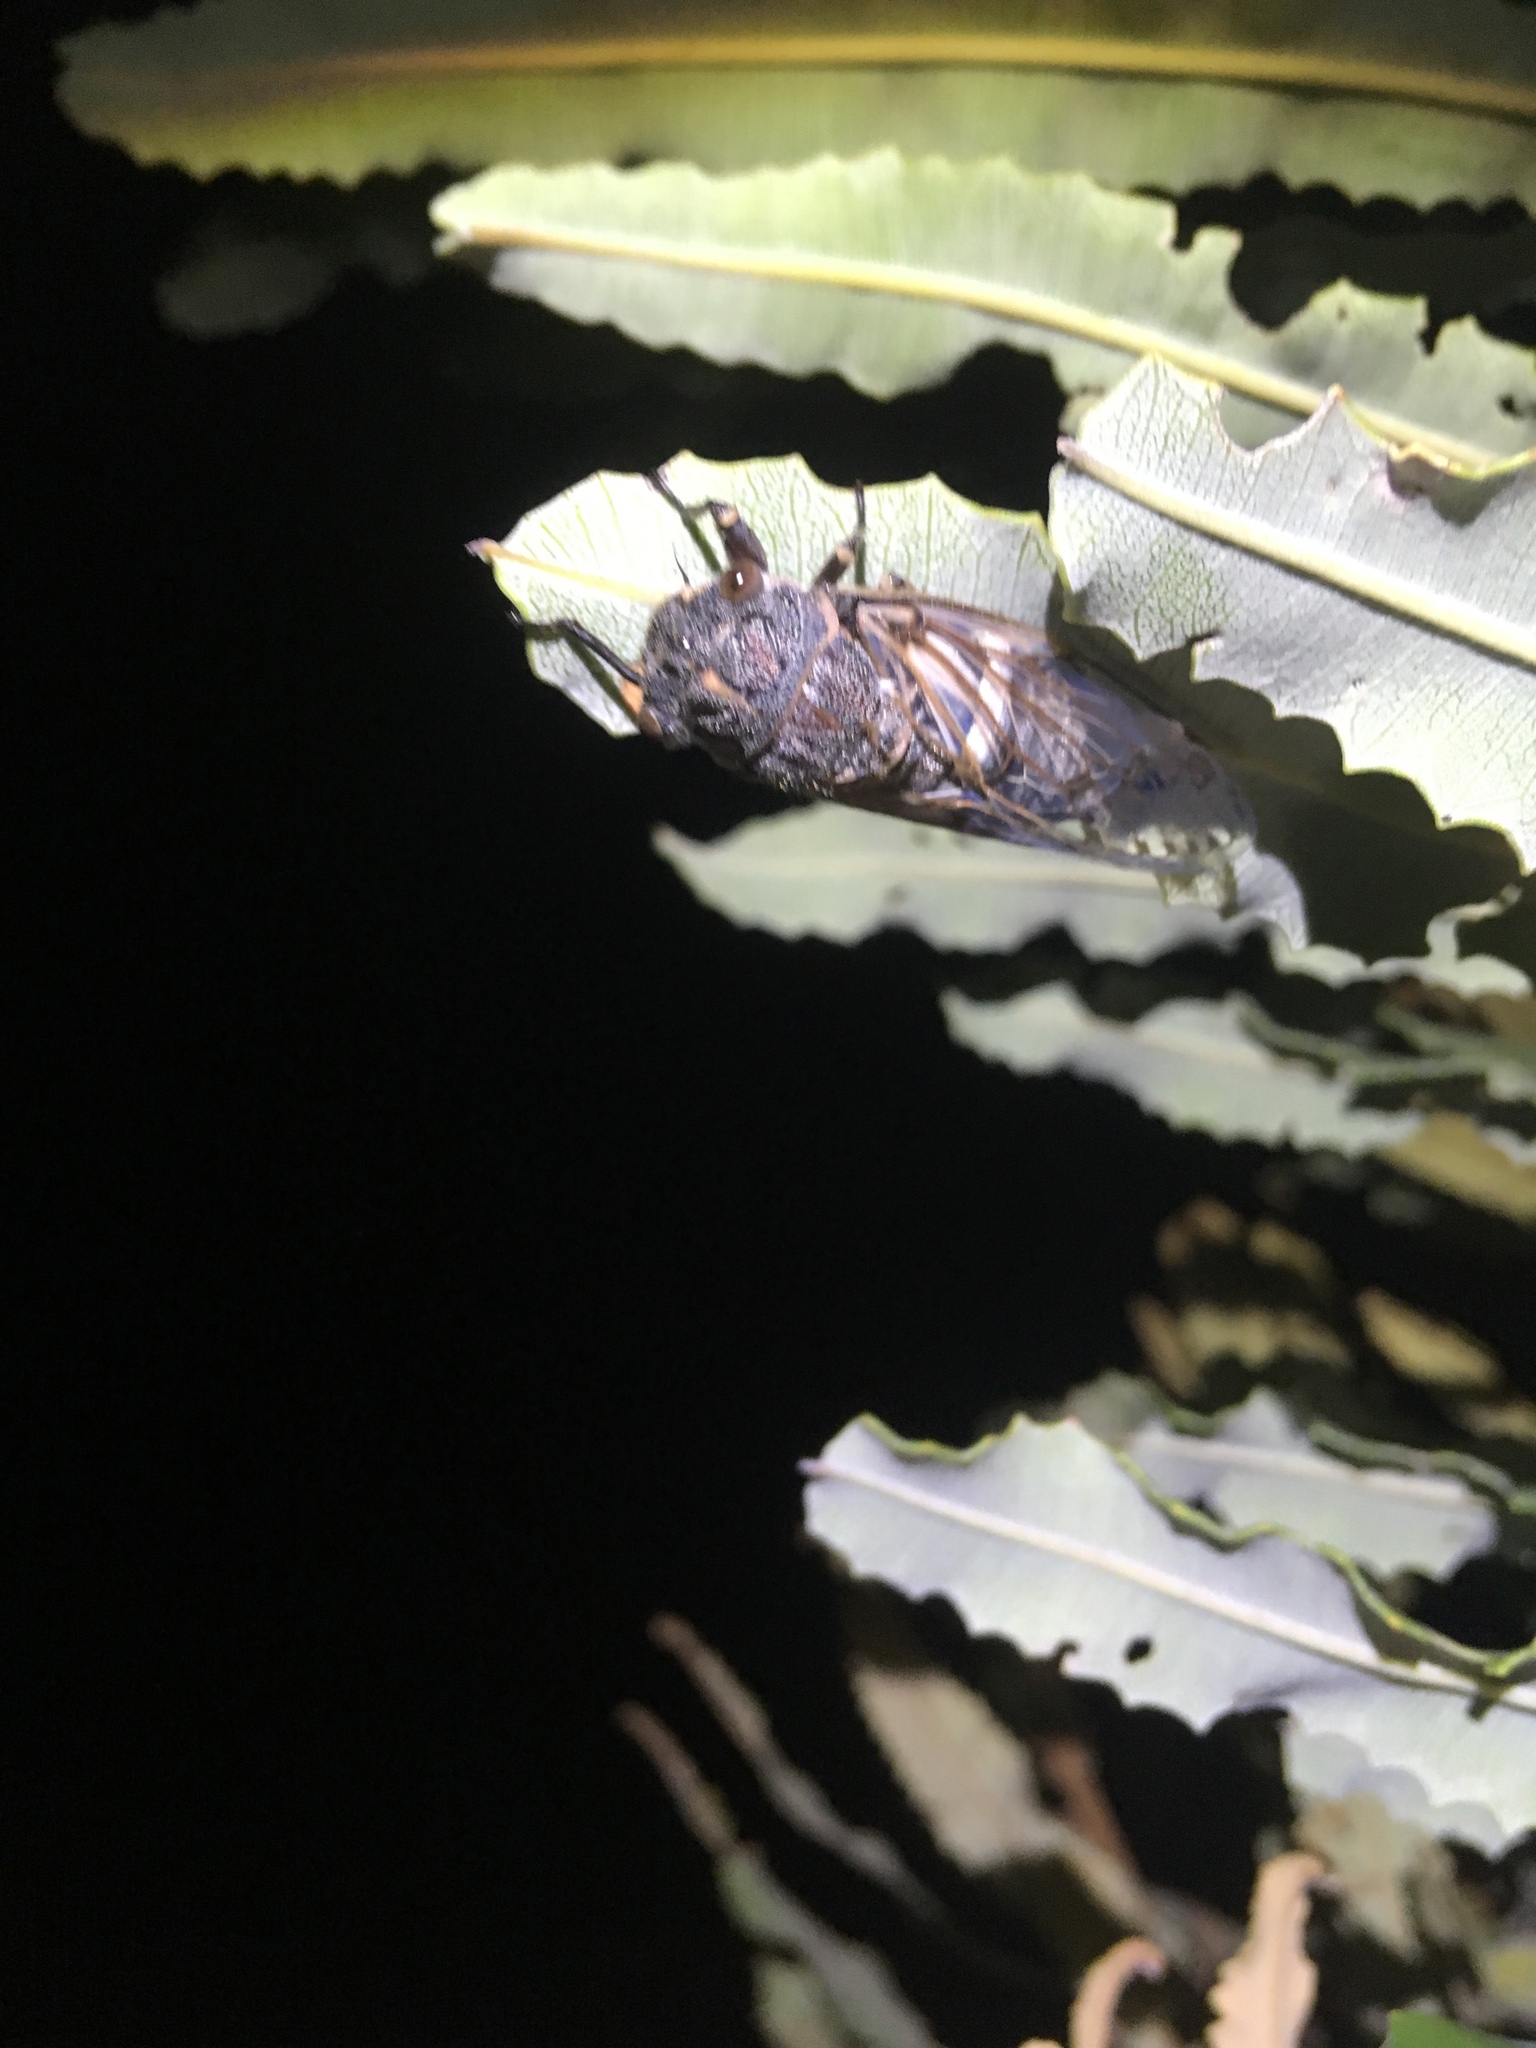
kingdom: Animalia
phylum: Arthropoda
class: Insecta
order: Hemiptera
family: Cicadidae
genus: Arenopsaltria
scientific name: Arenopsaltria fullo
